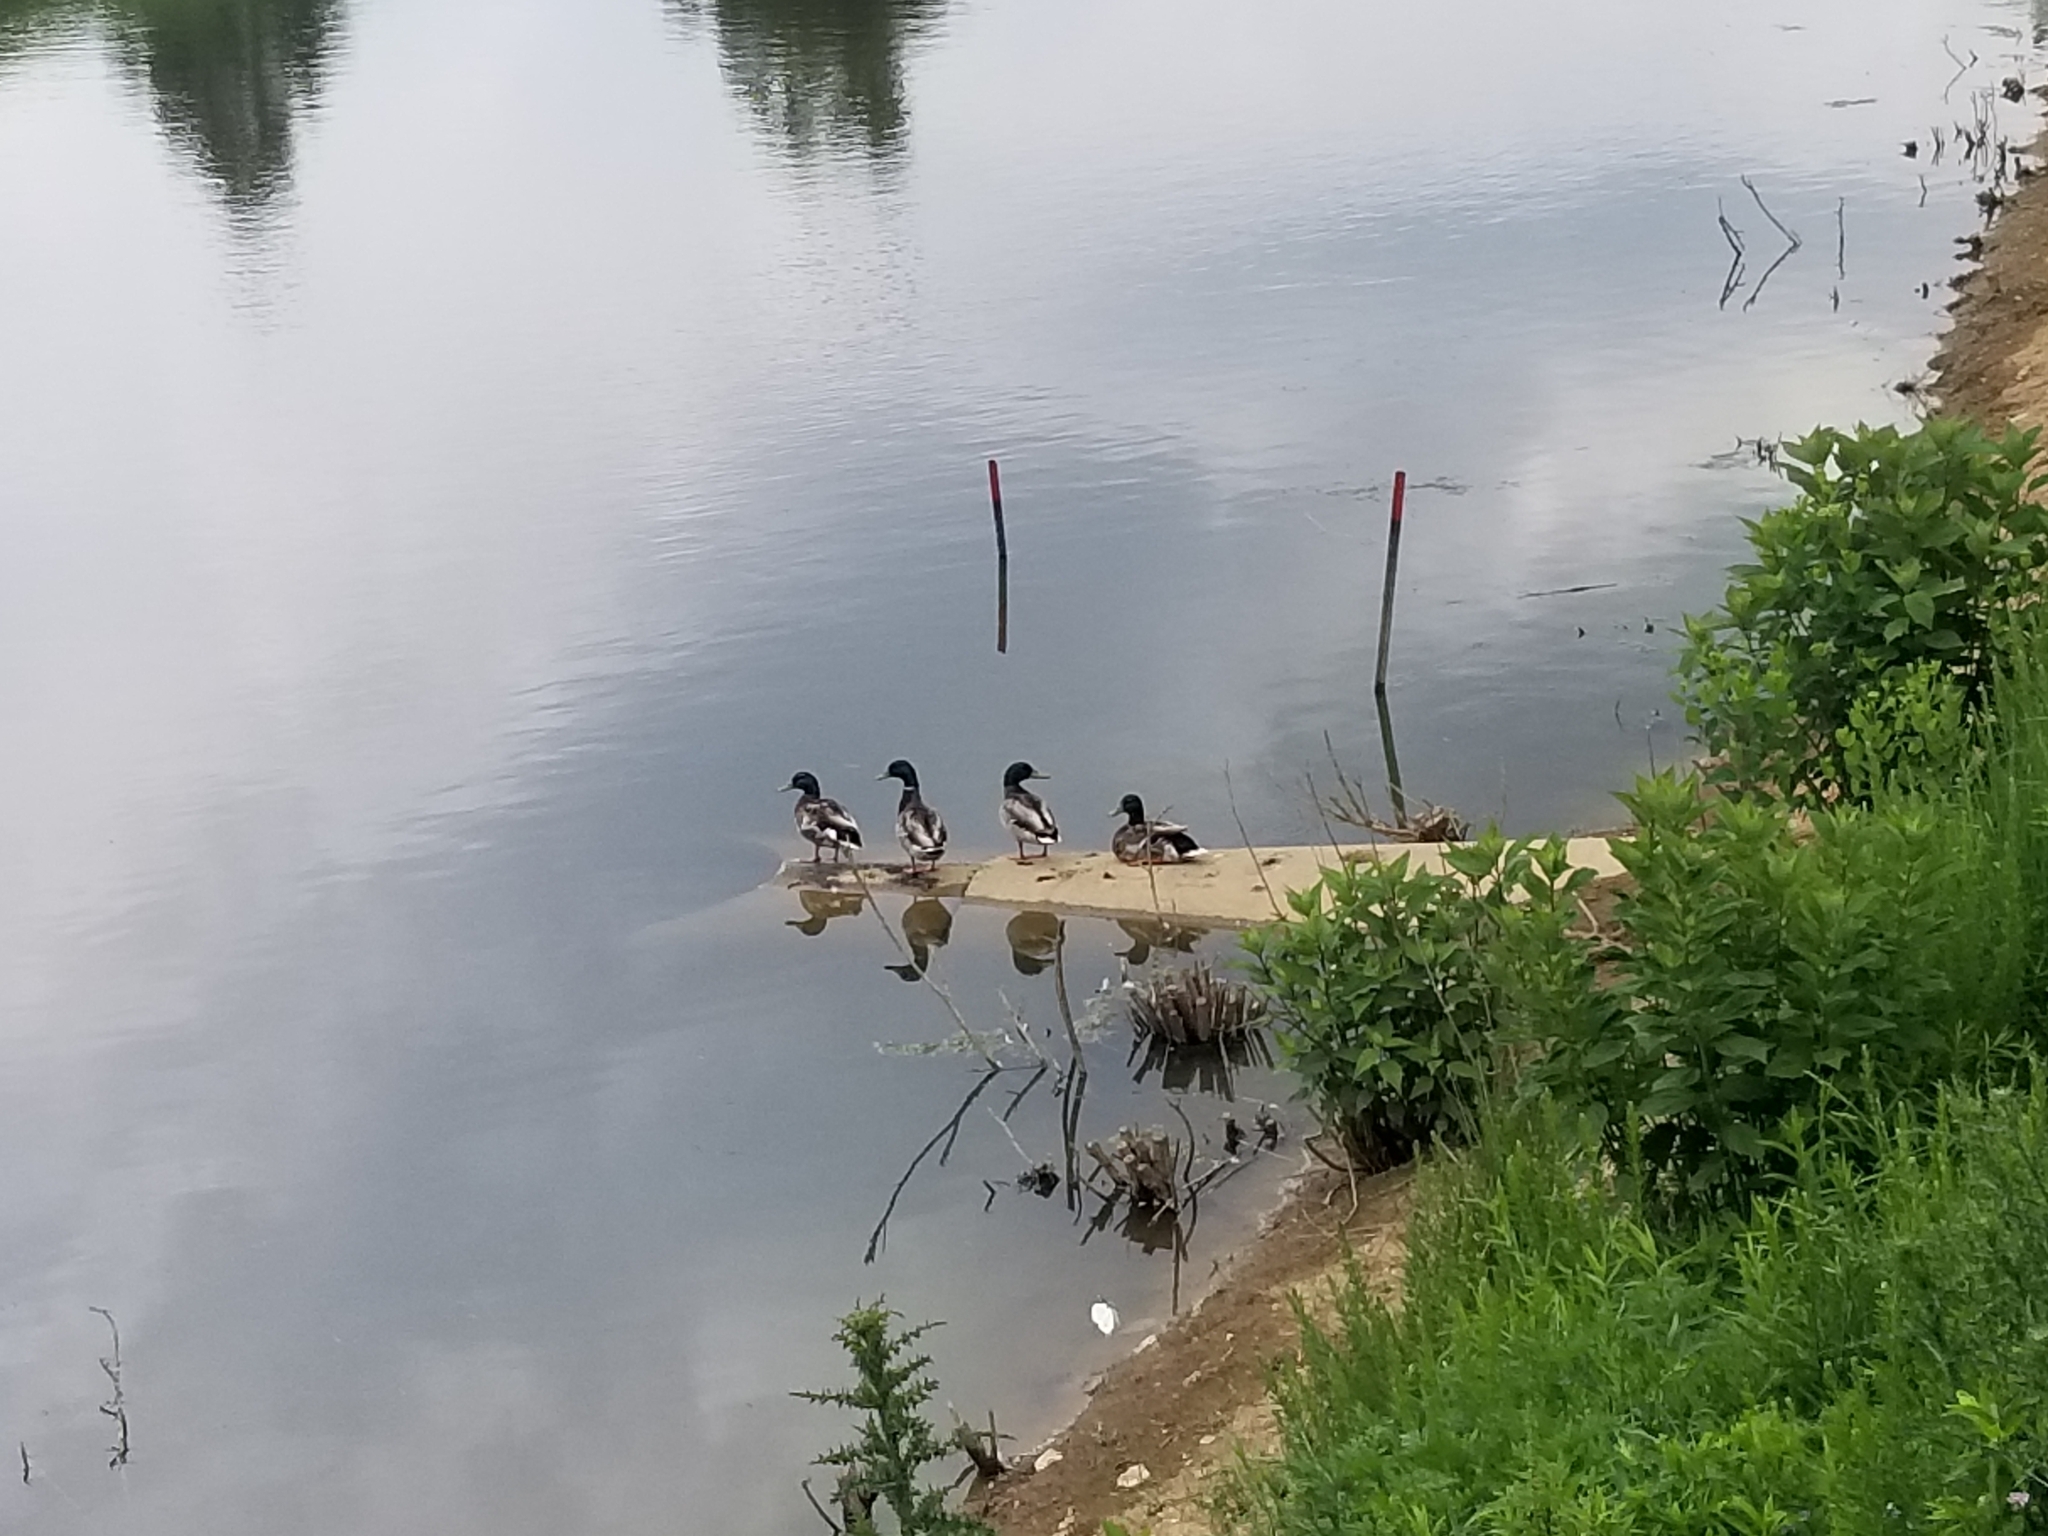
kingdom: Animalia
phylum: Chordata
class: Aves
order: Anseriformes
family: Anatidae
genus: Anas
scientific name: Anas platyrhynchos
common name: Mallard
